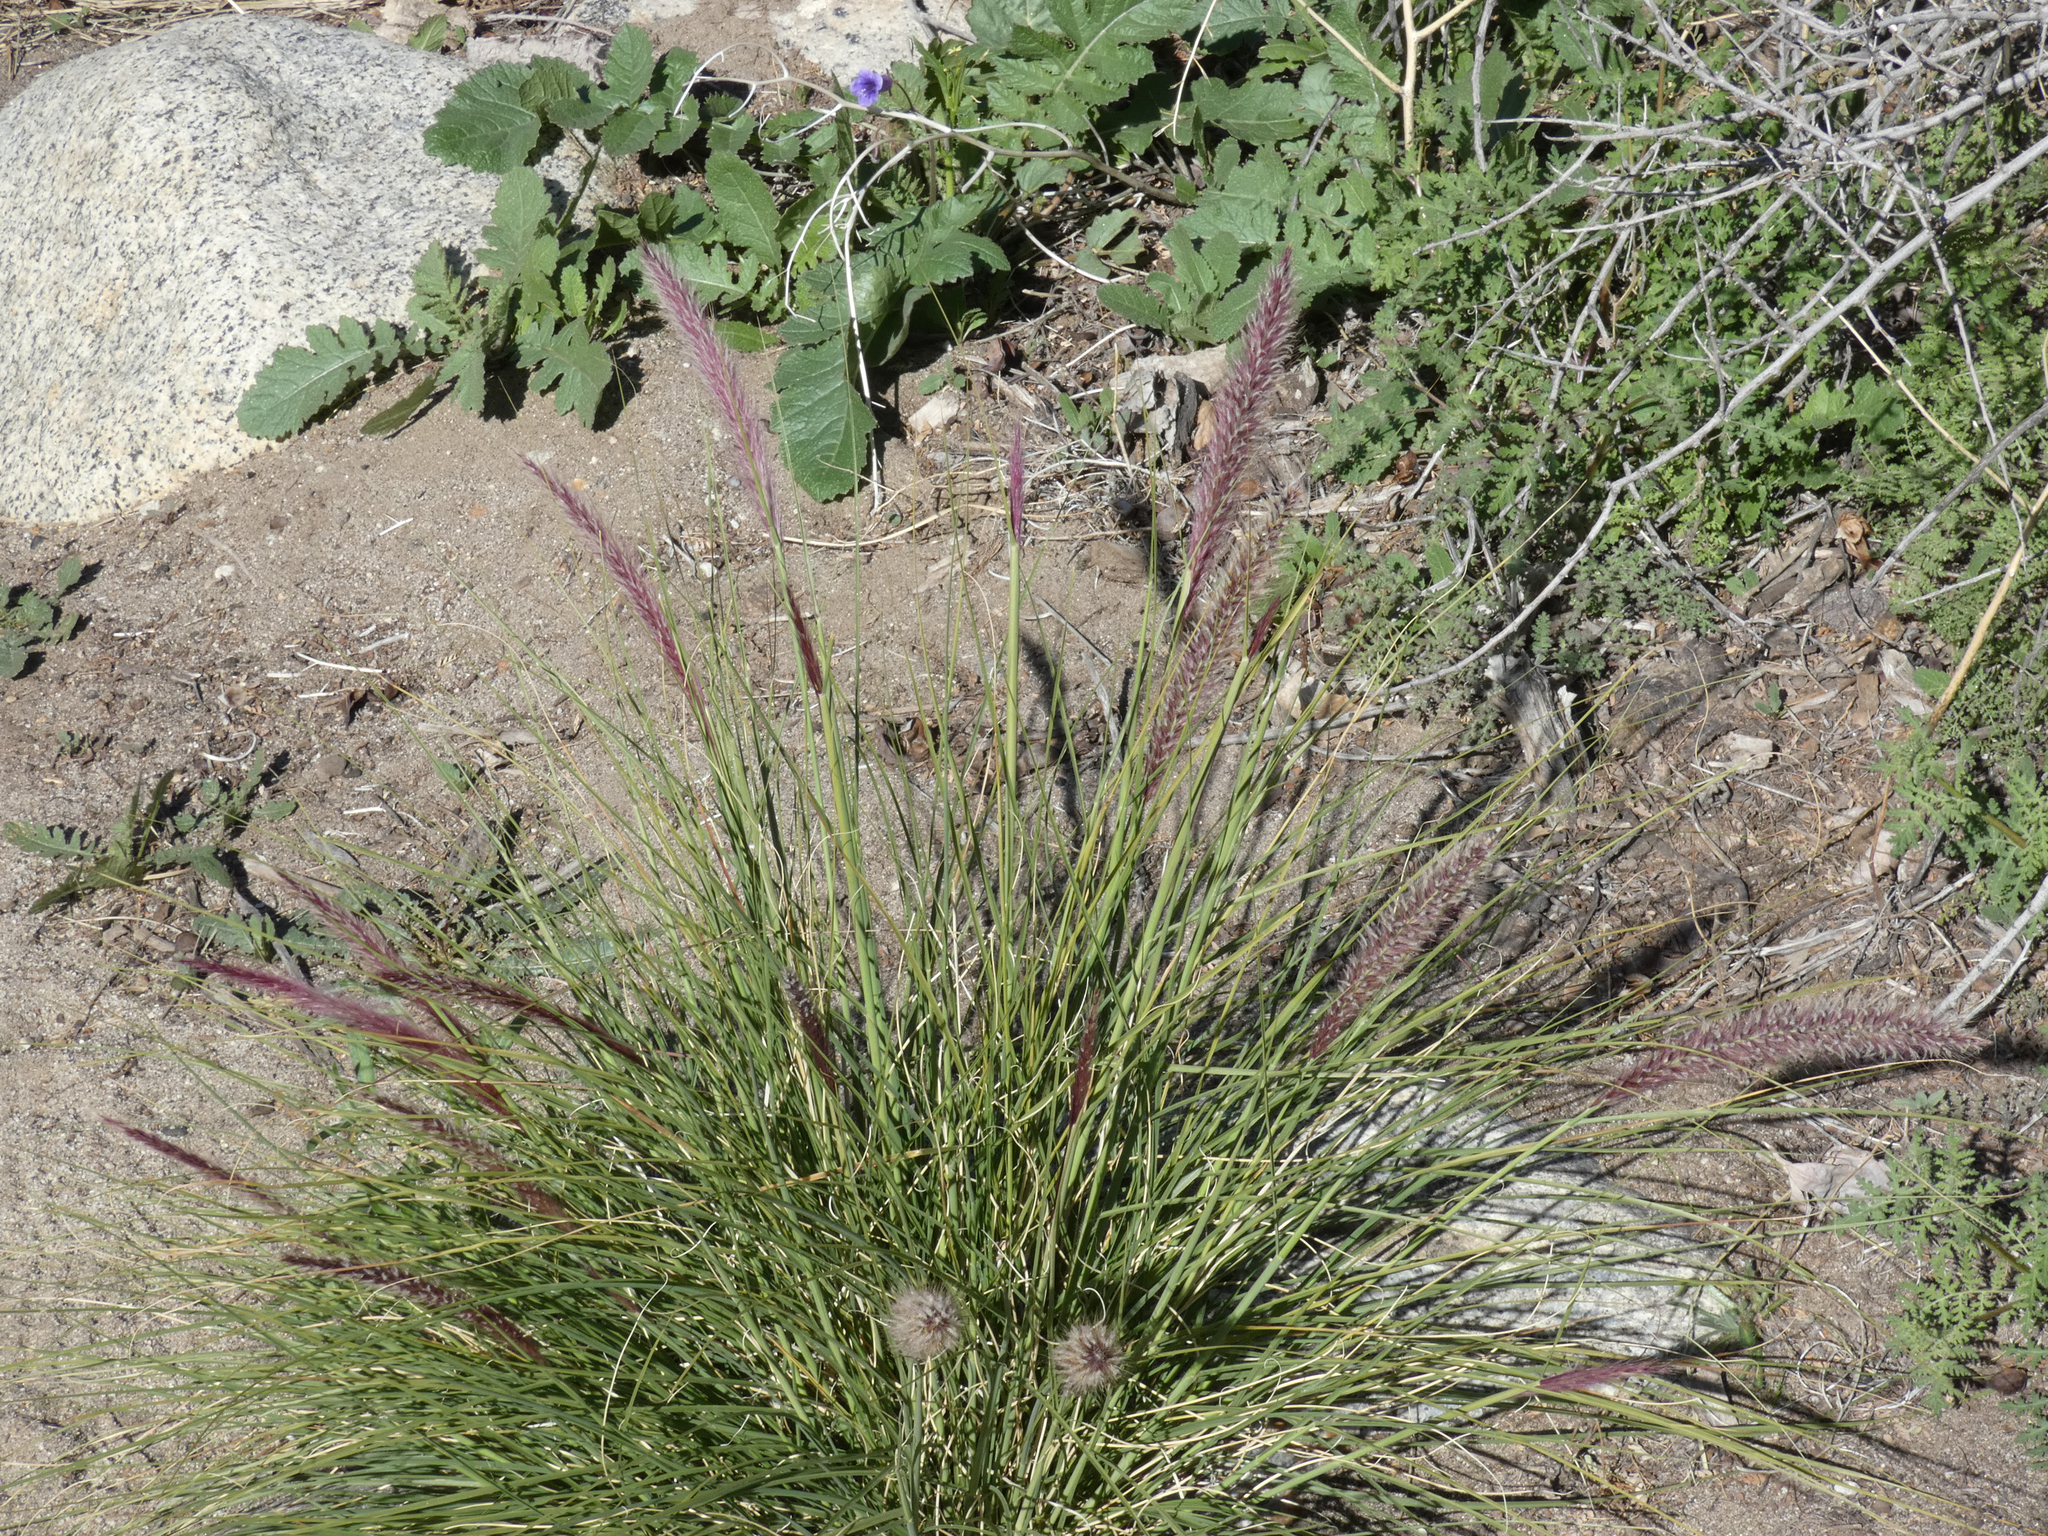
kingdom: Plantae
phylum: Tracheophyta
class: Liliopsida
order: Poales
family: Poaceae
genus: Cenchrus
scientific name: Cenchrus setaceus
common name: Crimson fountaingrass
